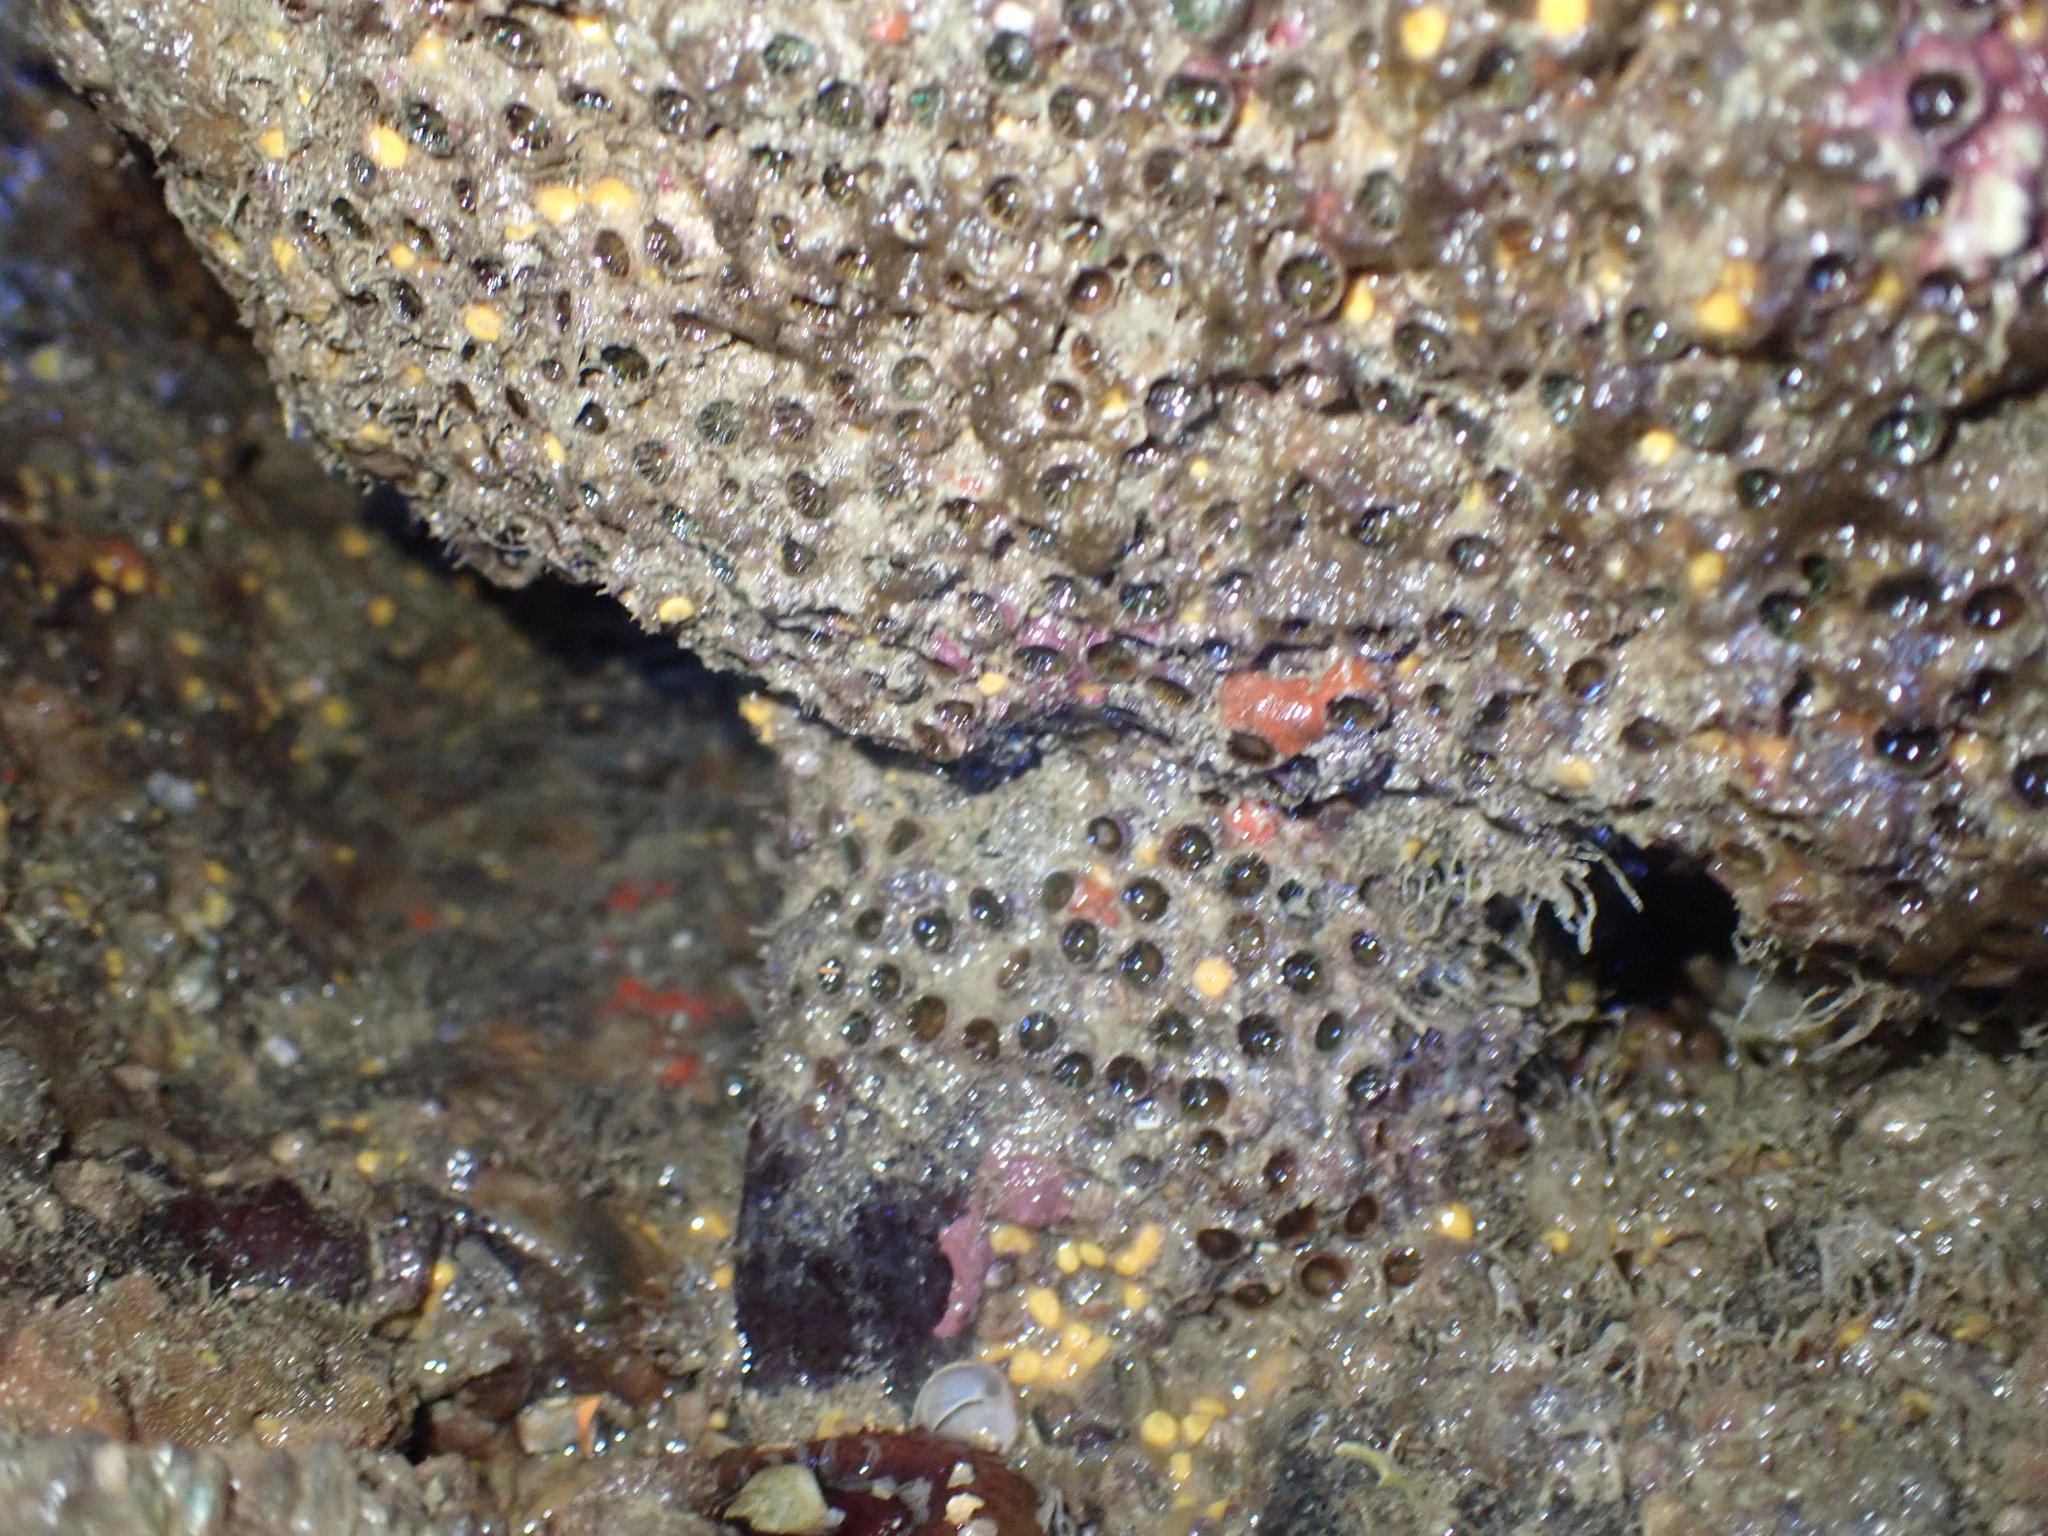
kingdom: Animalia
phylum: Cnidaria
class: Anthozoa
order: Scleractinia
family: Rhizangiidae
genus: Culicia
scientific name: Culicia rubeola
